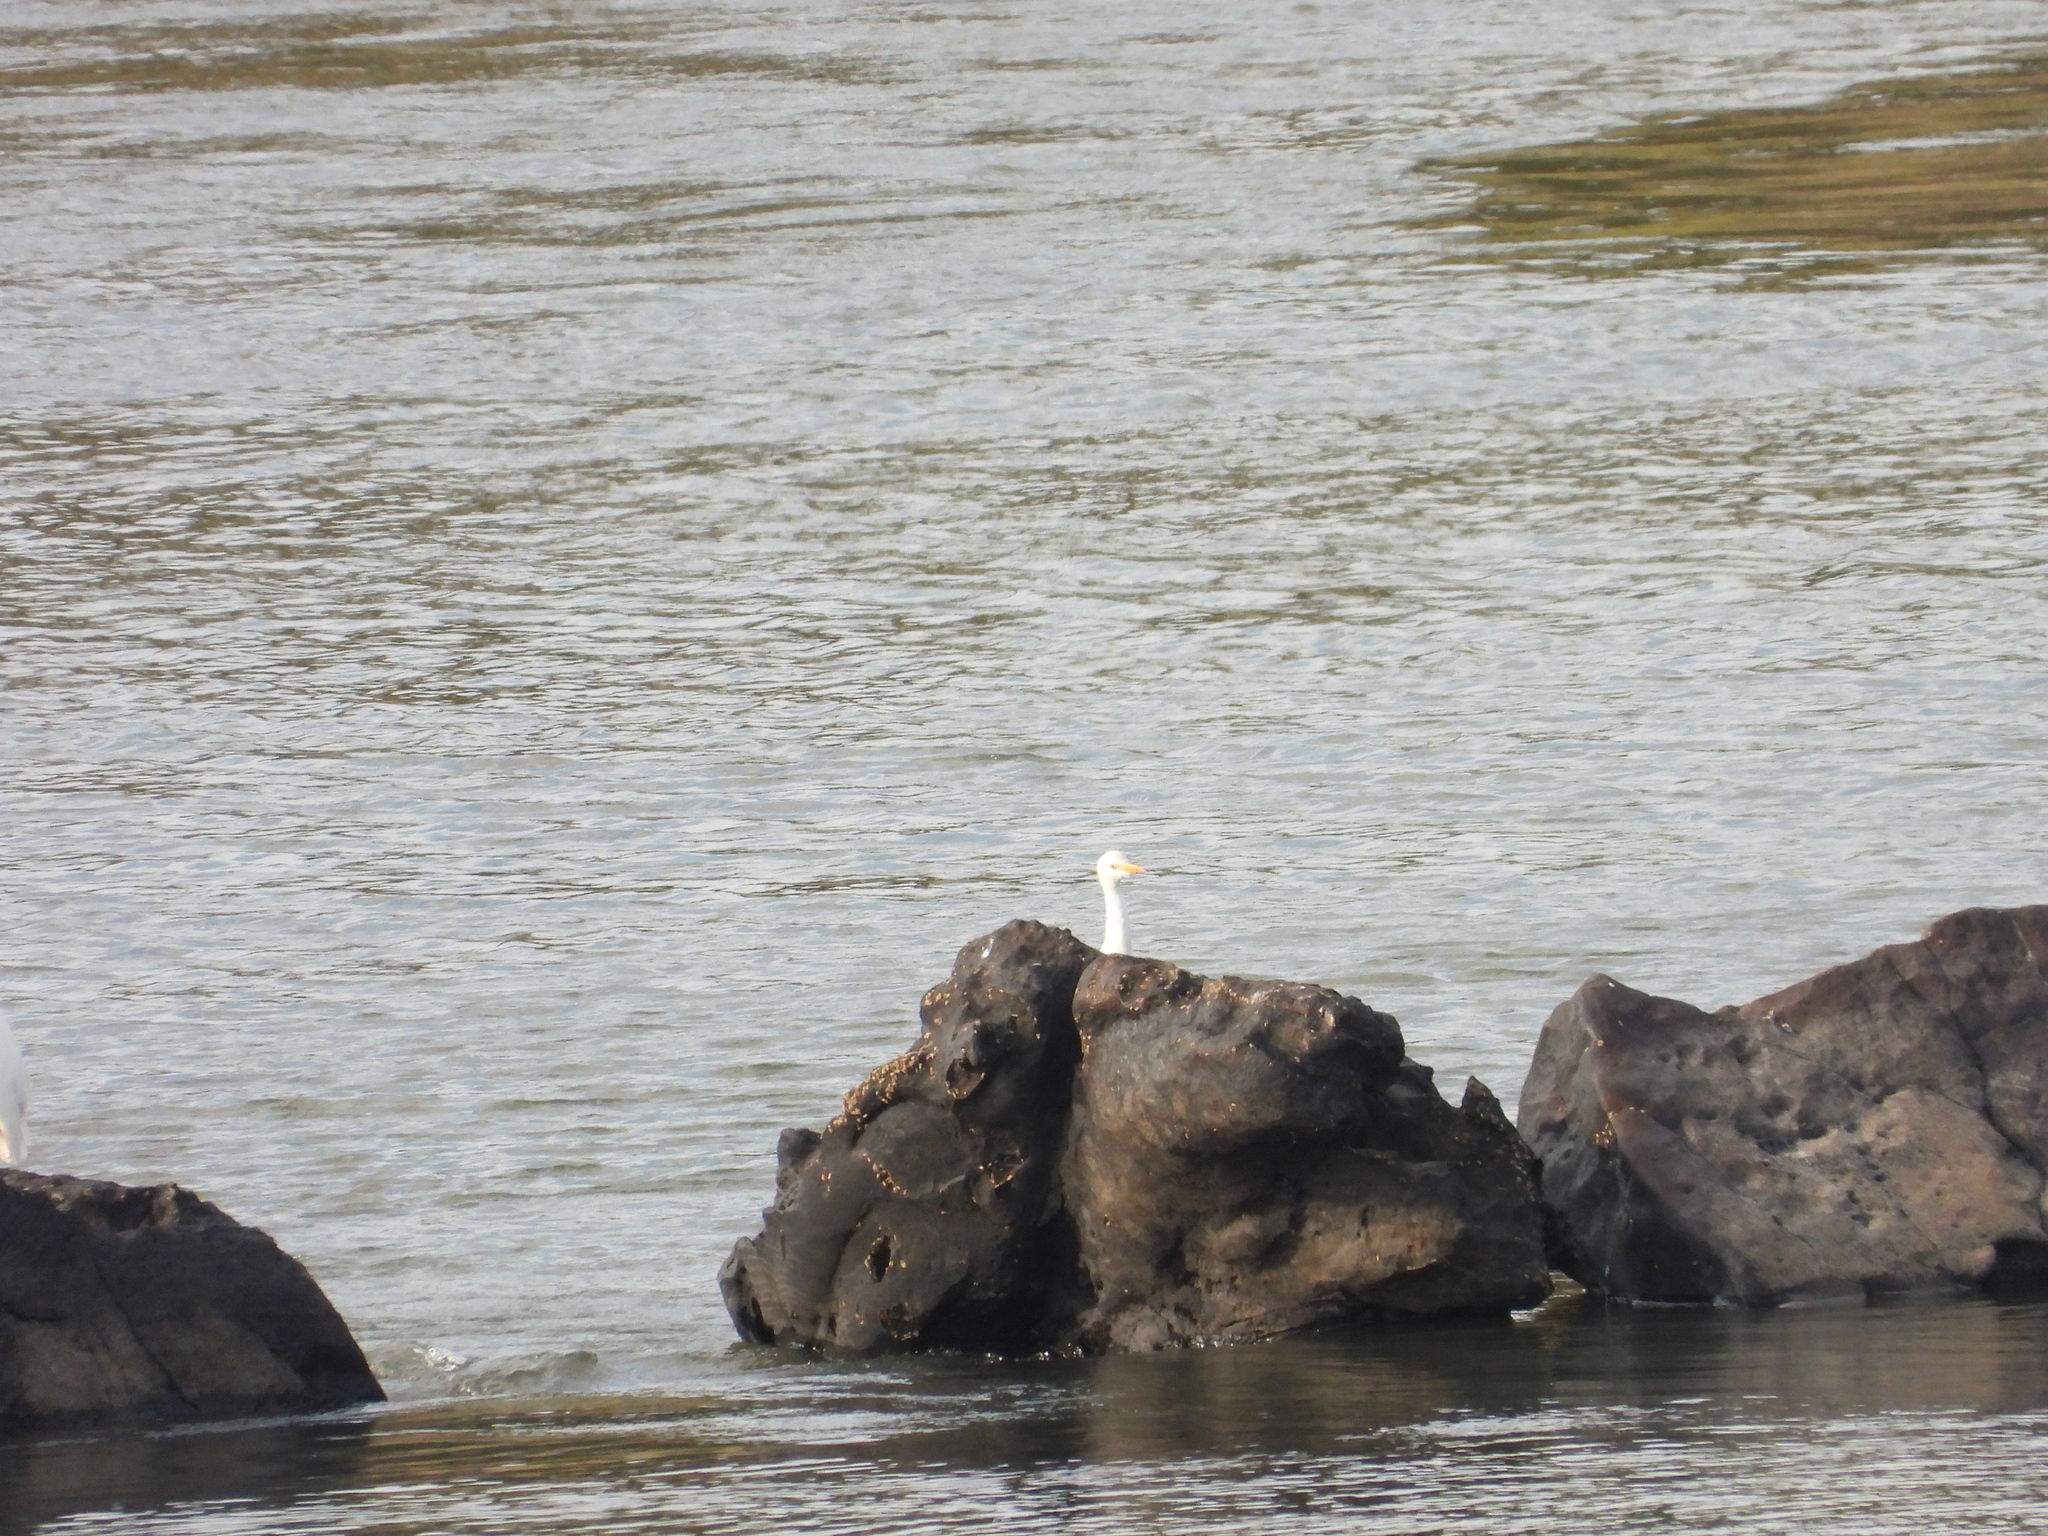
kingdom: Animalia
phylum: Chordata
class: Aves
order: Pelecaniformes
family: Ardeidae
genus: Bubulcus
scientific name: Bubulcus ibis
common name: Cattle egret
